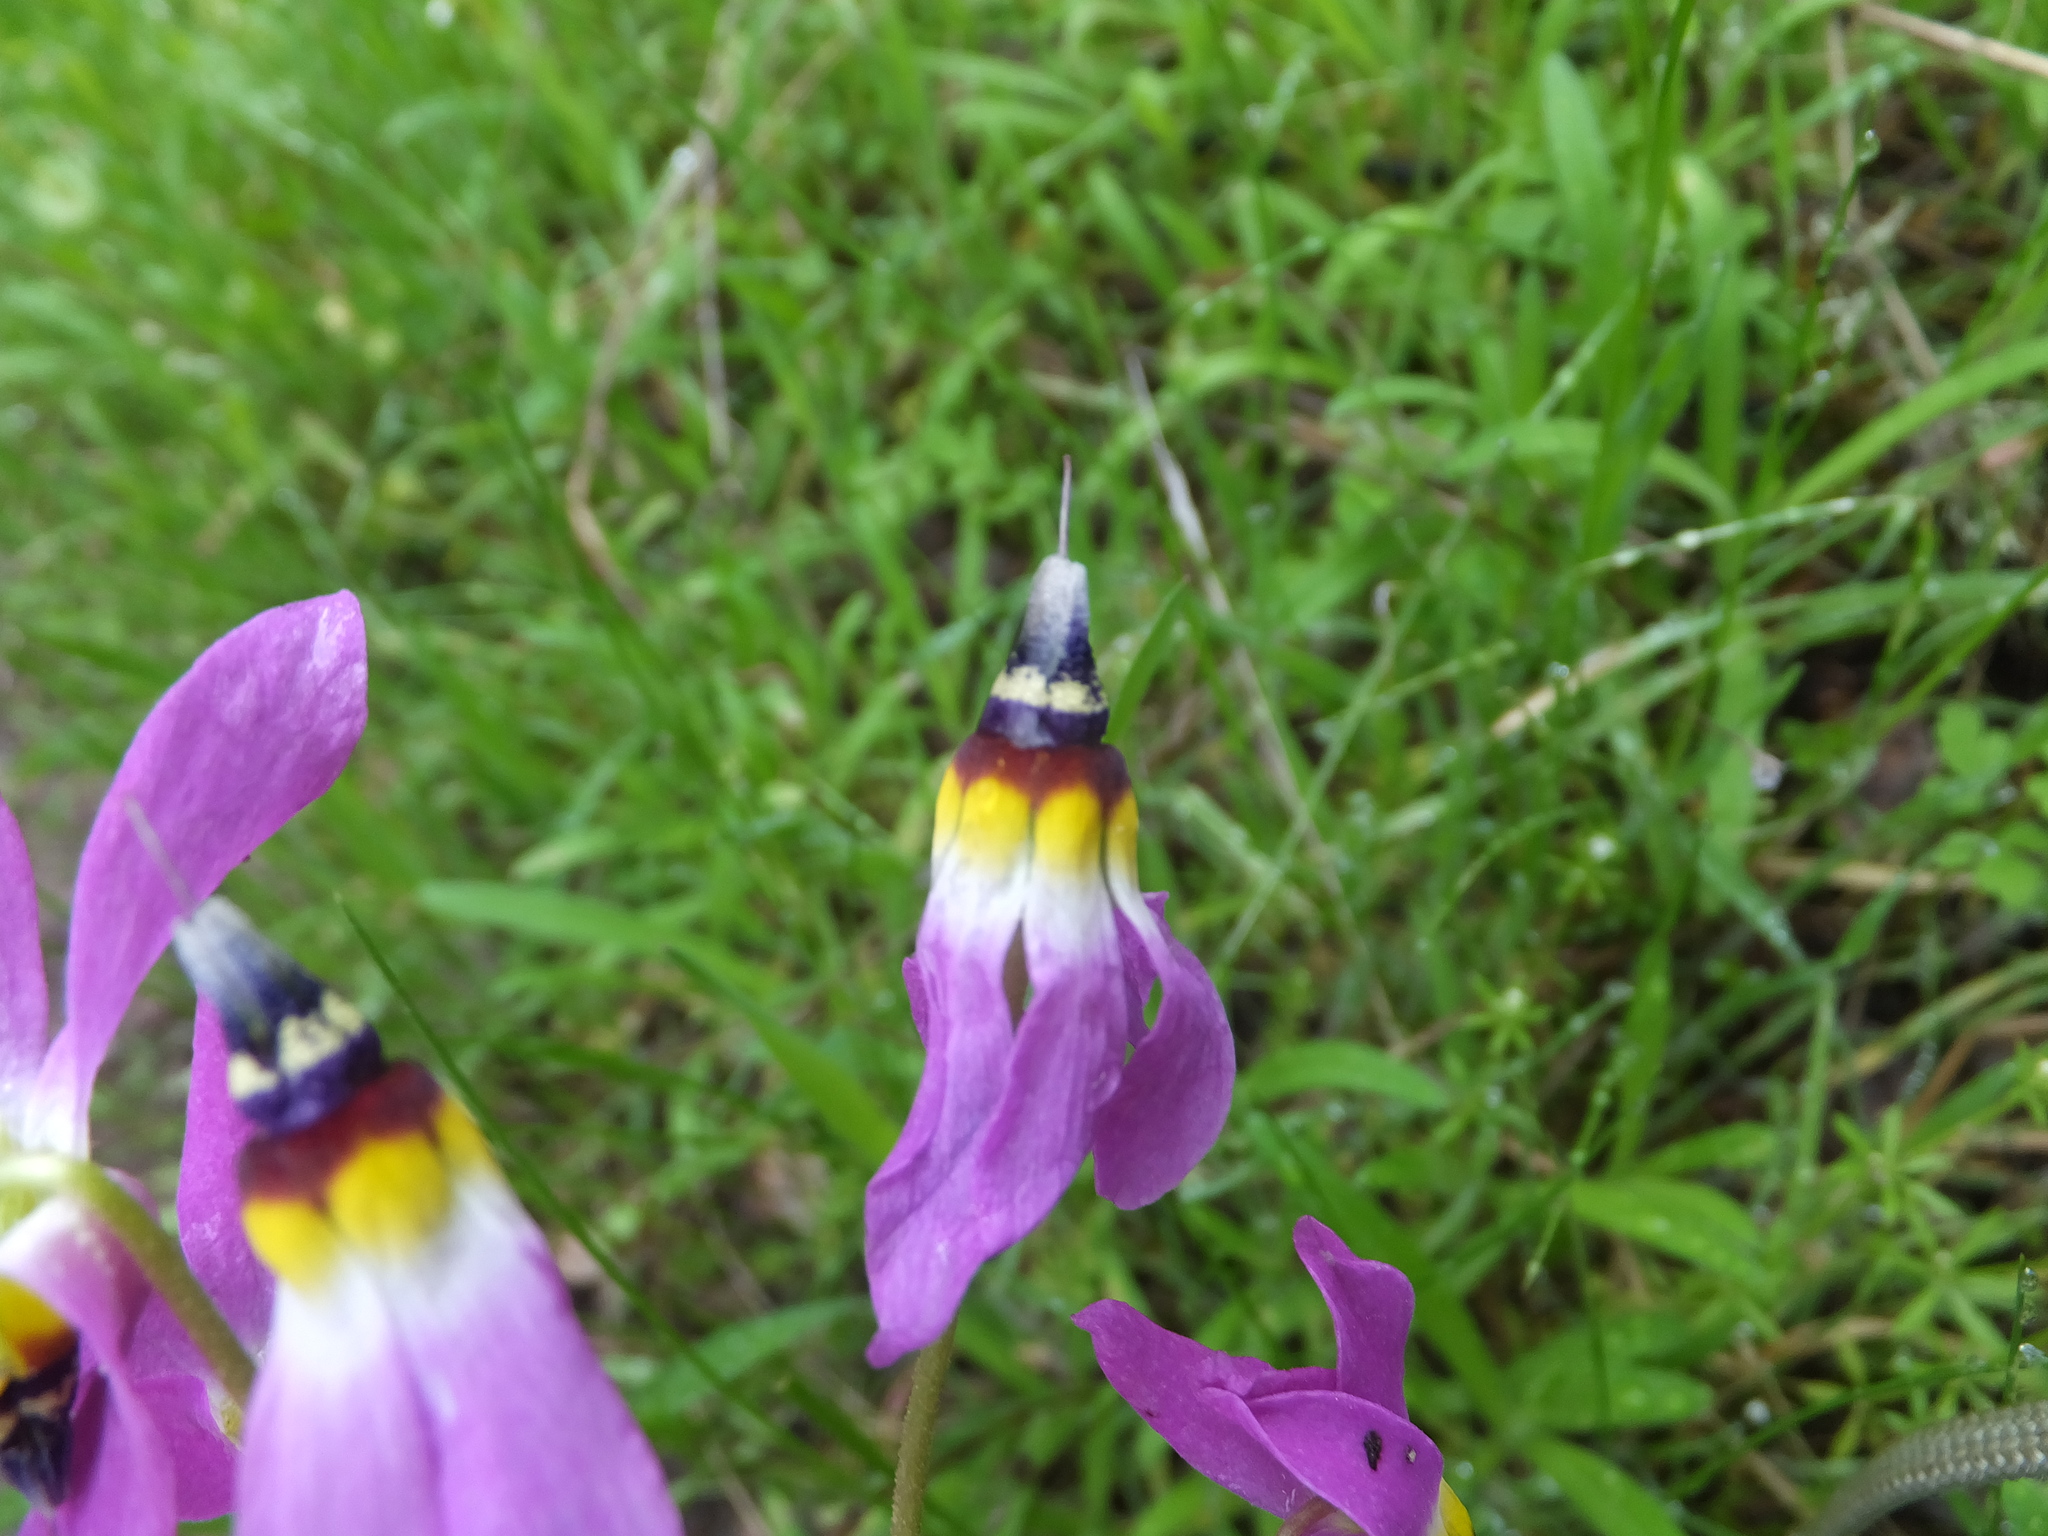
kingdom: Plantae
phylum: Tracheophyta
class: Magnoliopsida
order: Ericales
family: Primulaceae
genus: Dodecatheon
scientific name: Dodecatheon clevelandii
